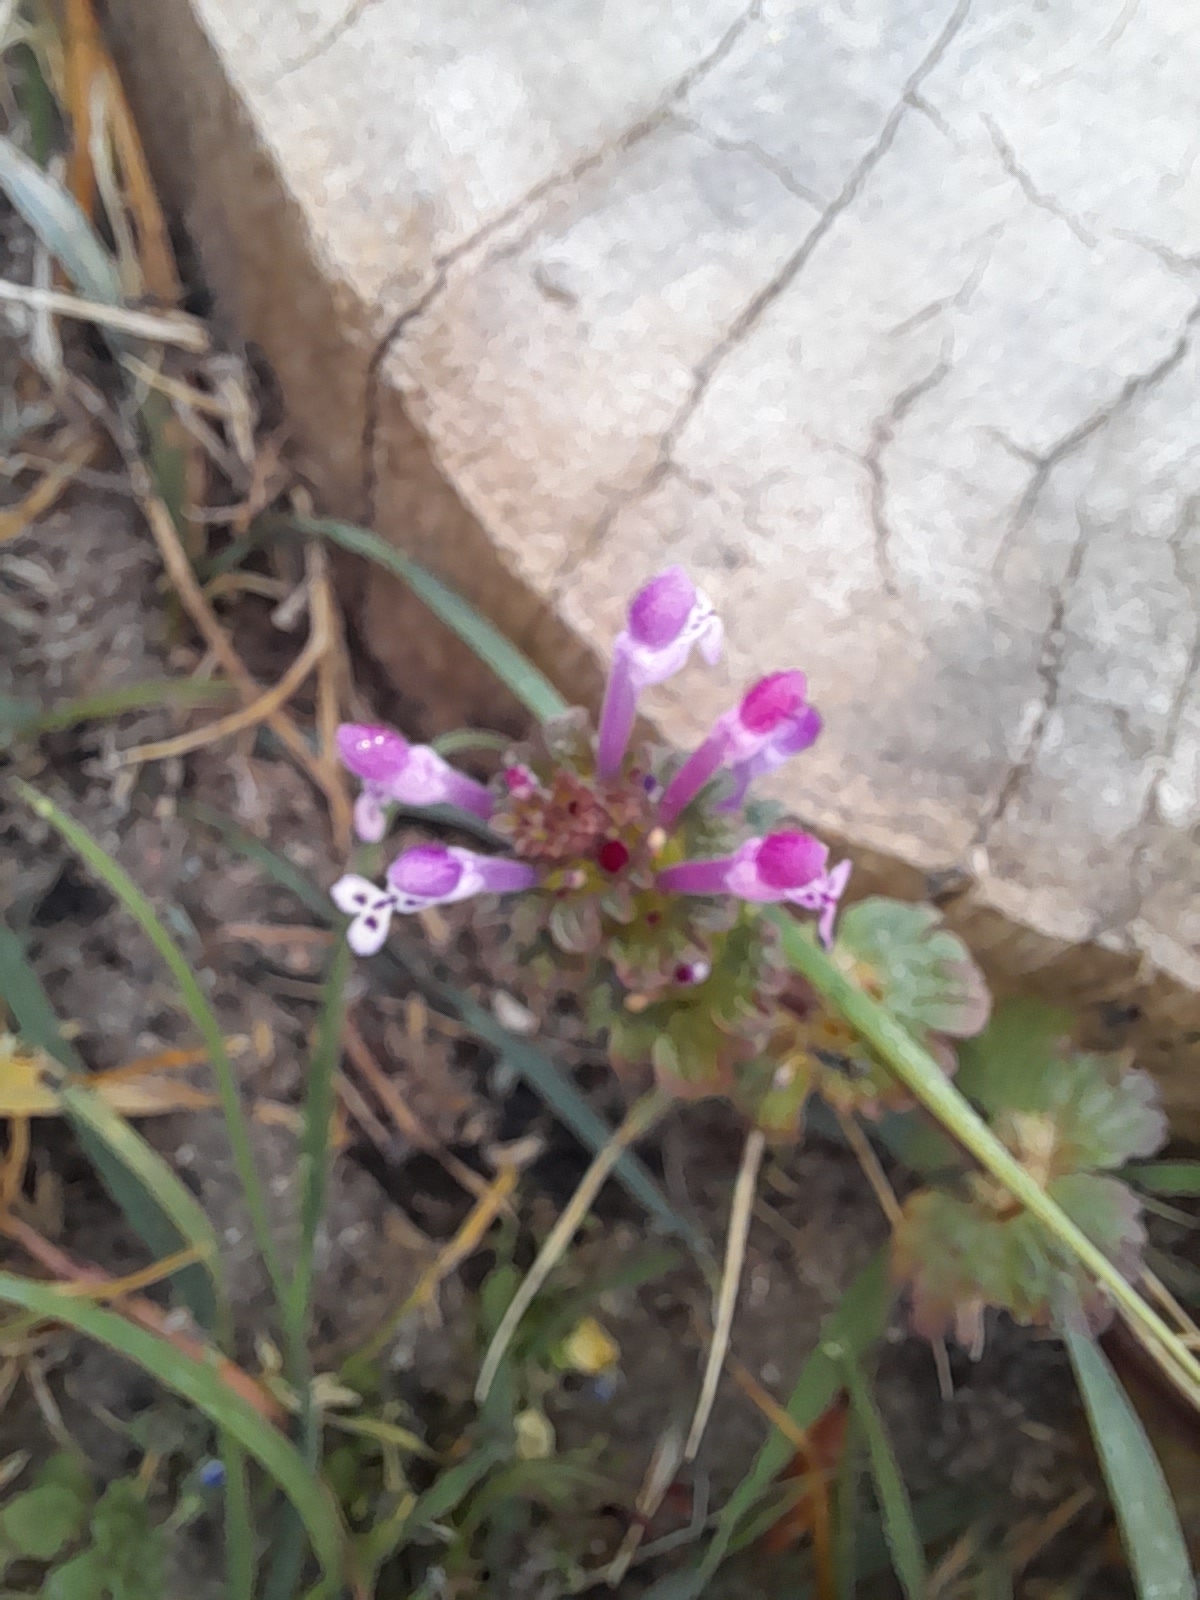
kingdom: Plantae
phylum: Tracheophyta
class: Magnoliopsida
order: Lamiales
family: Lamiaceae
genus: Lamium
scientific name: Lamium amplexicaule
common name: Henbit dead-nettle
